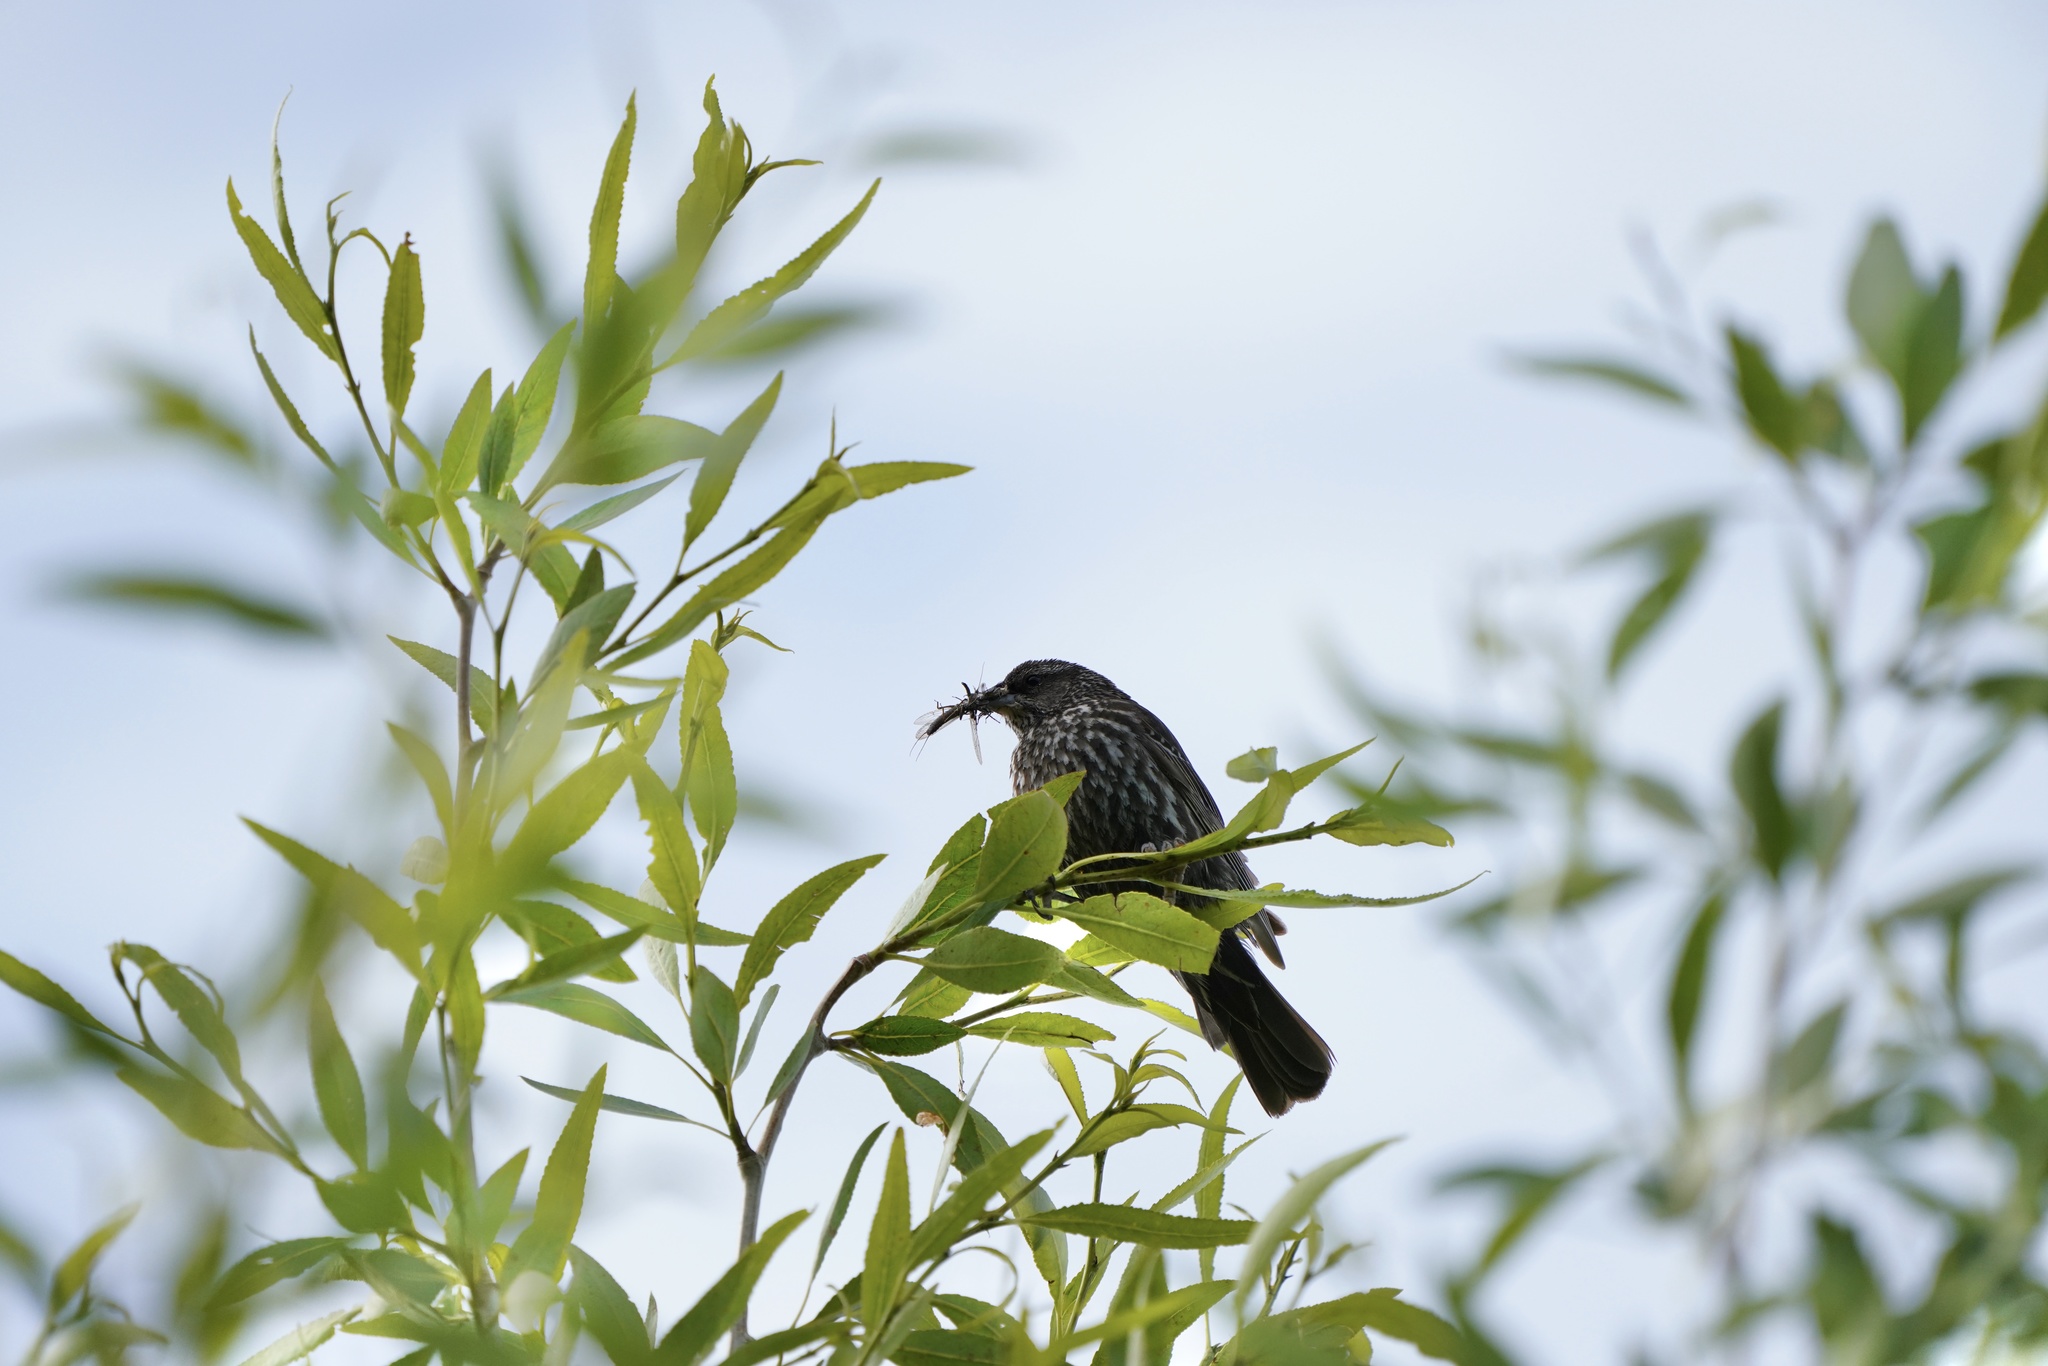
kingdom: Animalia
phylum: Chordata
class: Aves
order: Passeriformes
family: Icteridae
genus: Agelaius
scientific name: Agelaius phoeniceus
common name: Red-winged blackbird
